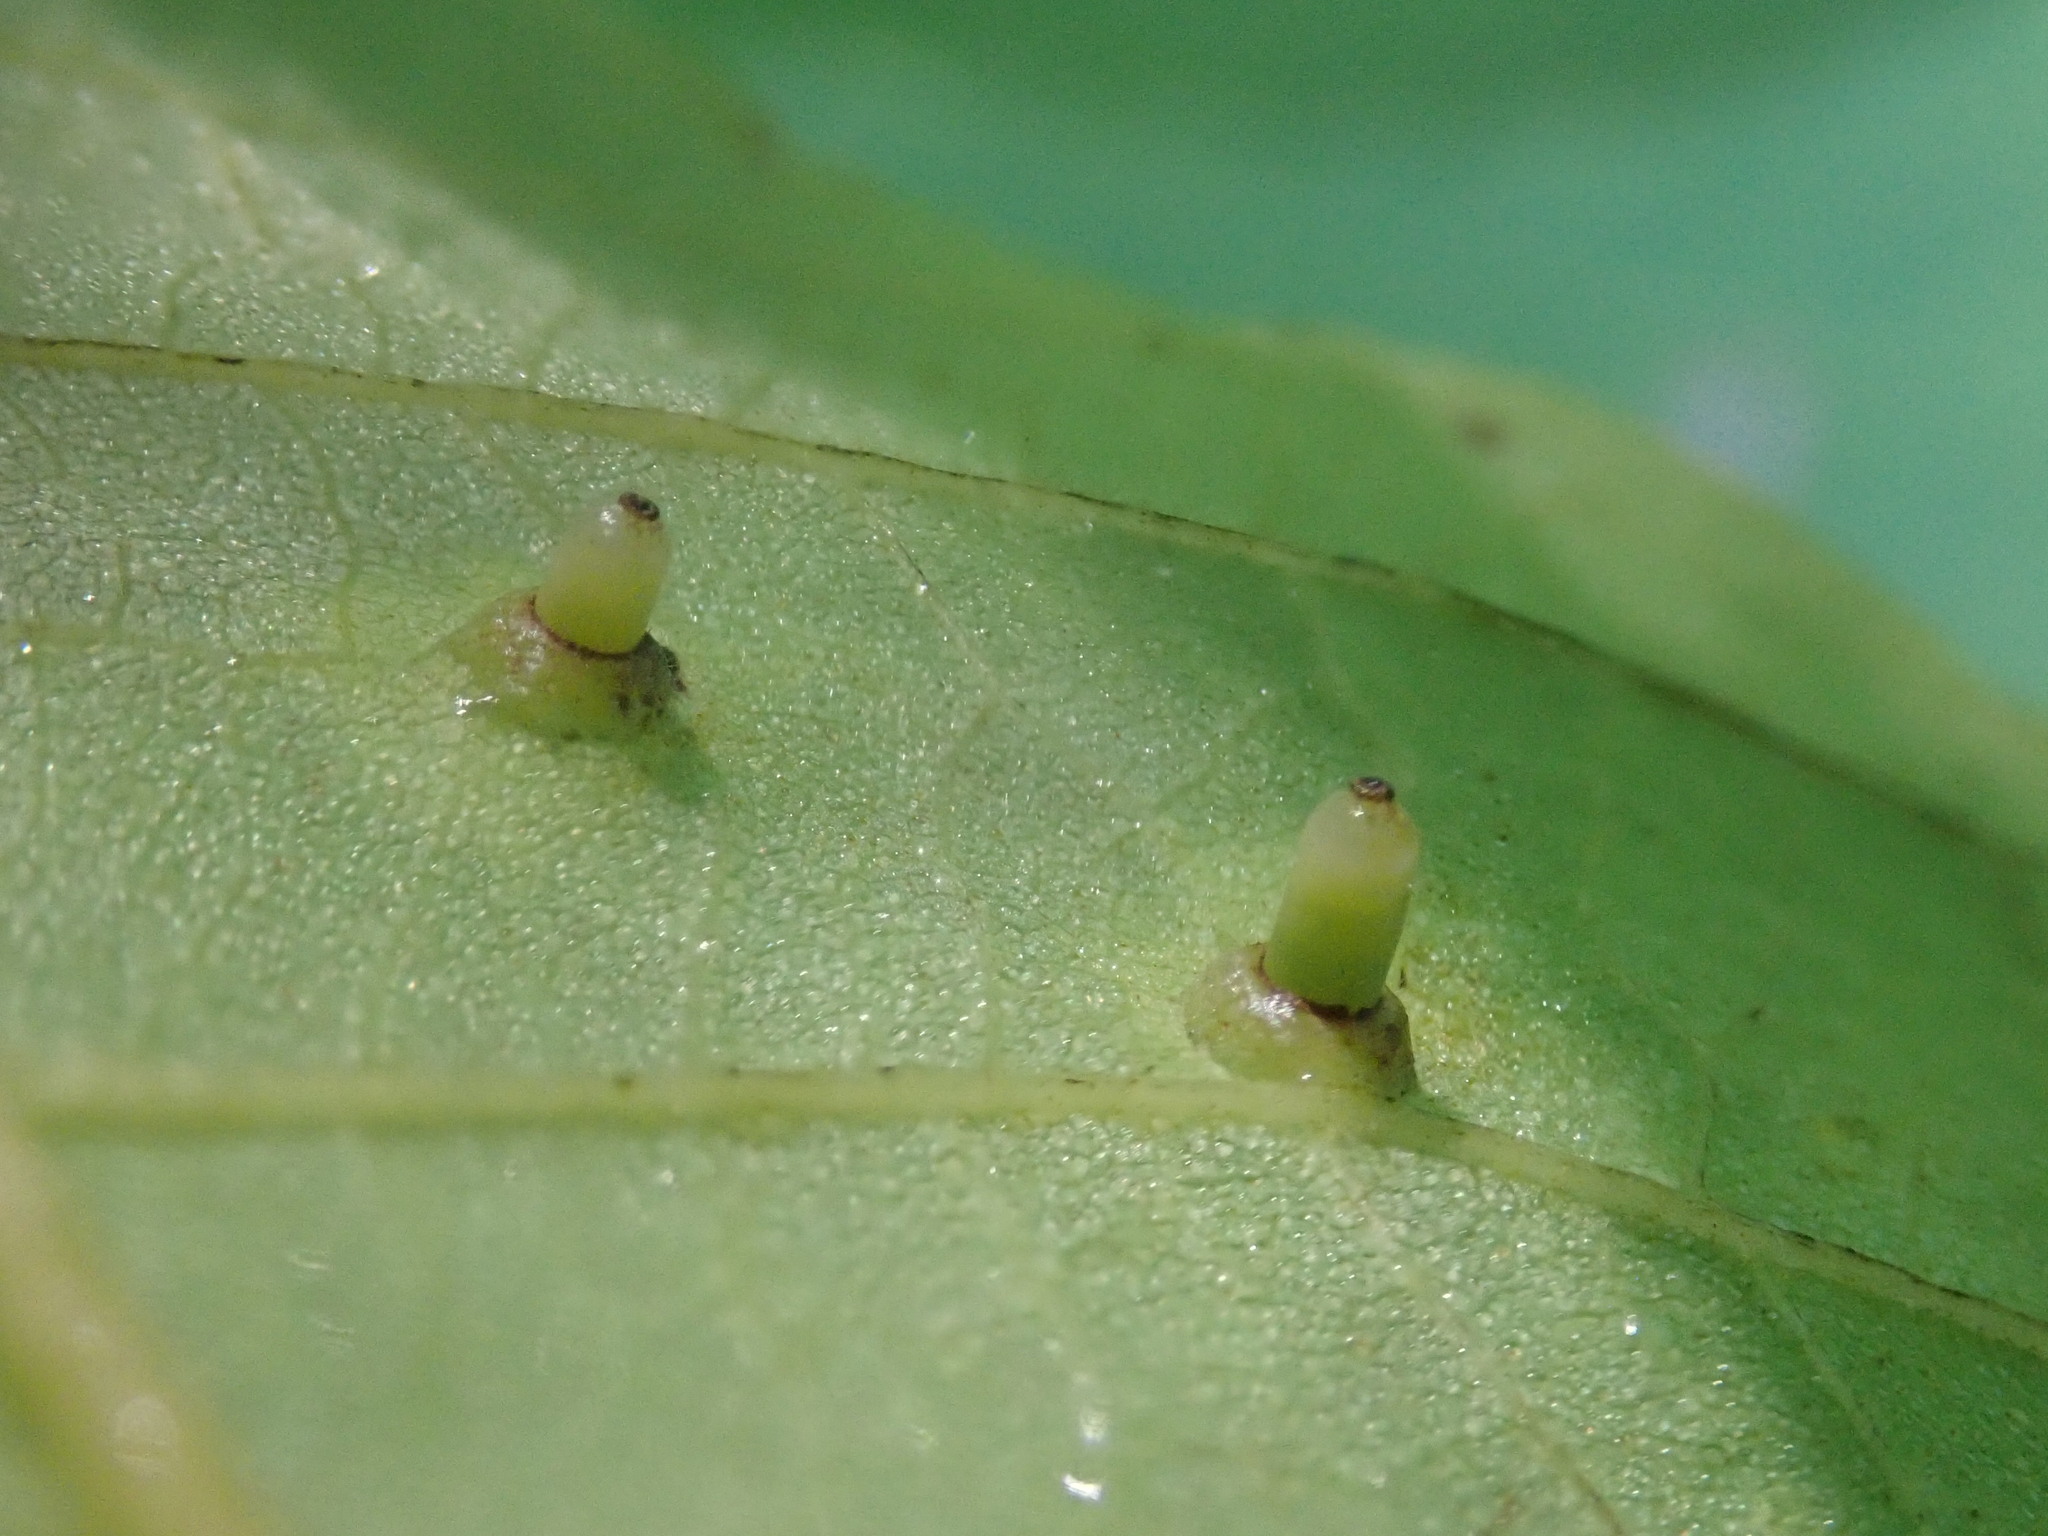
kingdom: Animalia
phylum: Arthropoda
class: Insecta
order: Diptera
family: Cecidomyiidae
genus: Caryomyia
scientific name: Caryomyia tubicola
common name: Hickory bullet gall midge
